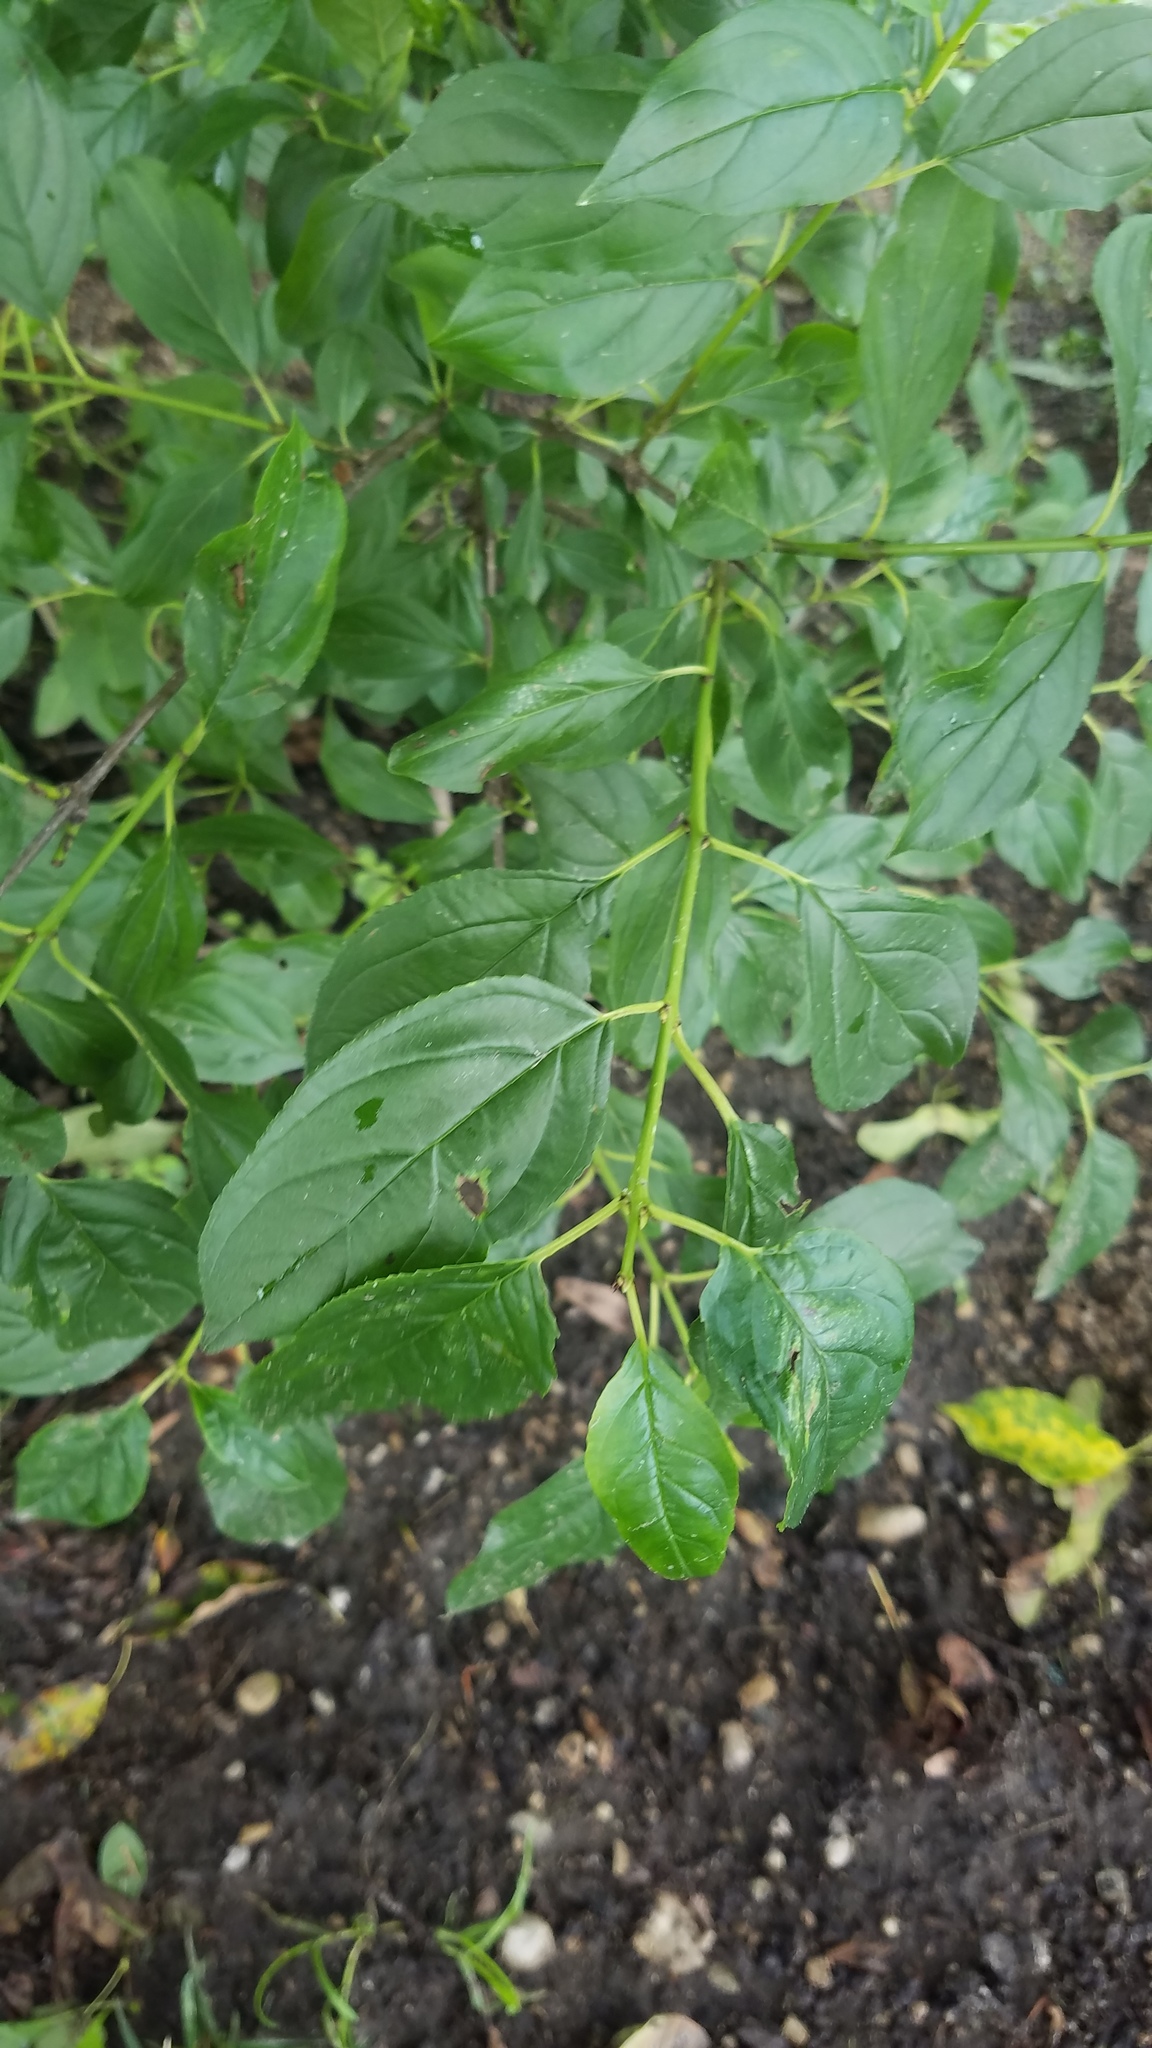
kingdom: Plantae
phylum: Tracheophyta
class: Magnoliopsida
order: Rosales
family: Rhamnaceae
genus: Rhamnus
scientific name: Rhamnus cathartica
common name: Common buckthorn
